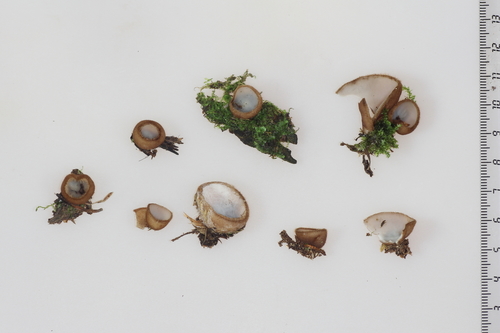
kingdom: Fungi
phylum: Ascomycota
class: Pezizomycetes
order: Pezizales
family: Pyronemataceae
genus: Humaria
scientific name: Humaria hemisphaerica
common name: Glazed cup
